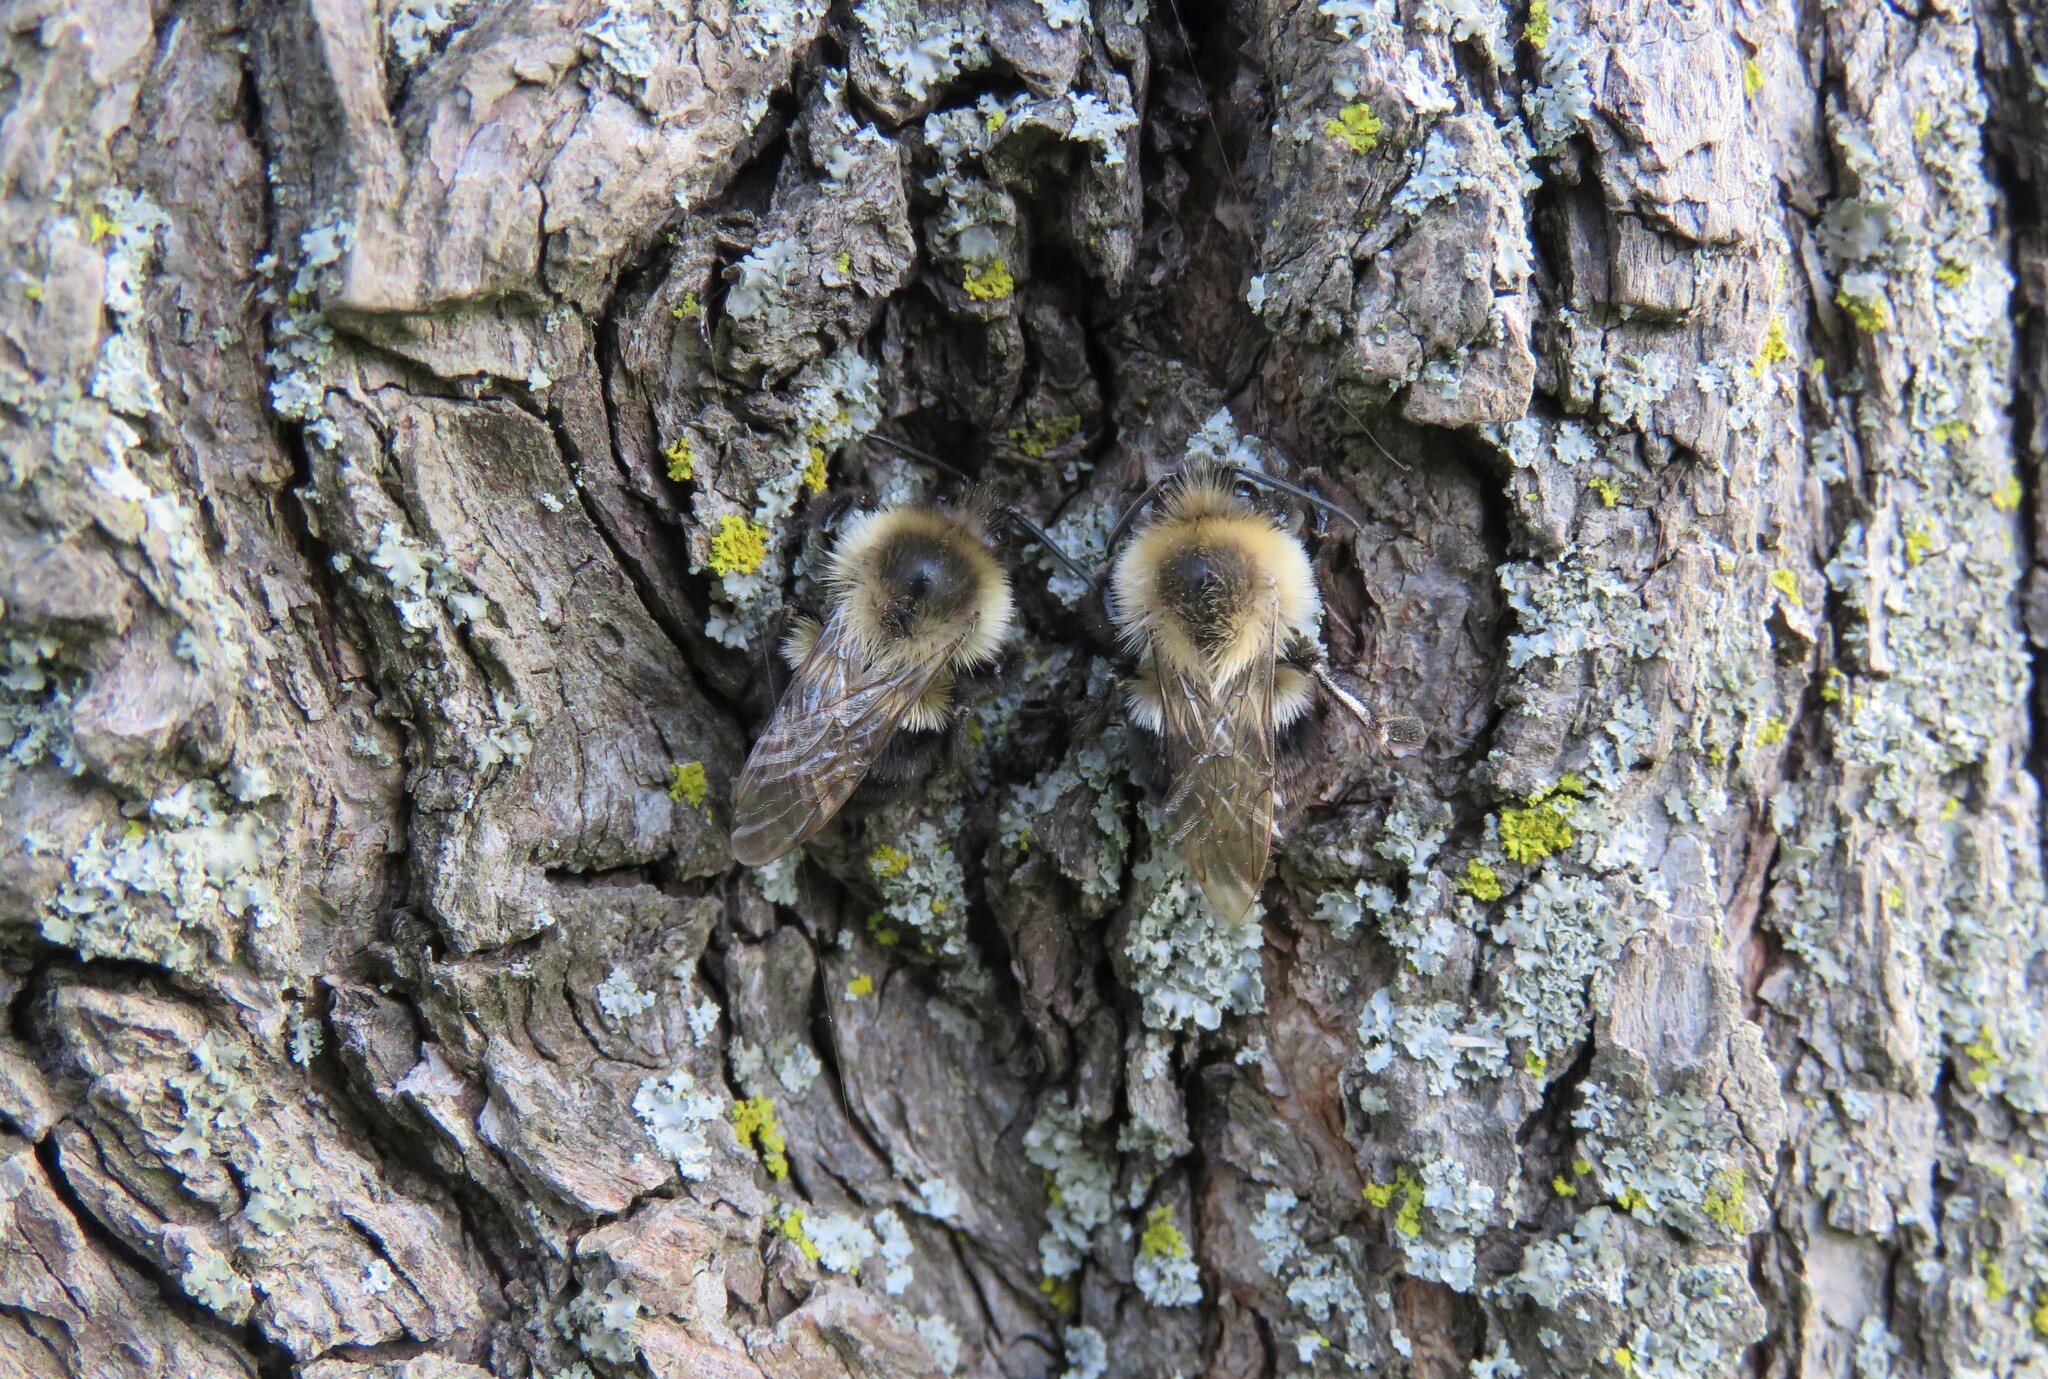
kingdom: Animalia
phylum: Arthropoda
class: Insecta
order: Hymenoptera
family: Apidae
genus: Bombus
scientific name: Bombus impatiens
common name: Common eastern bumble bee
